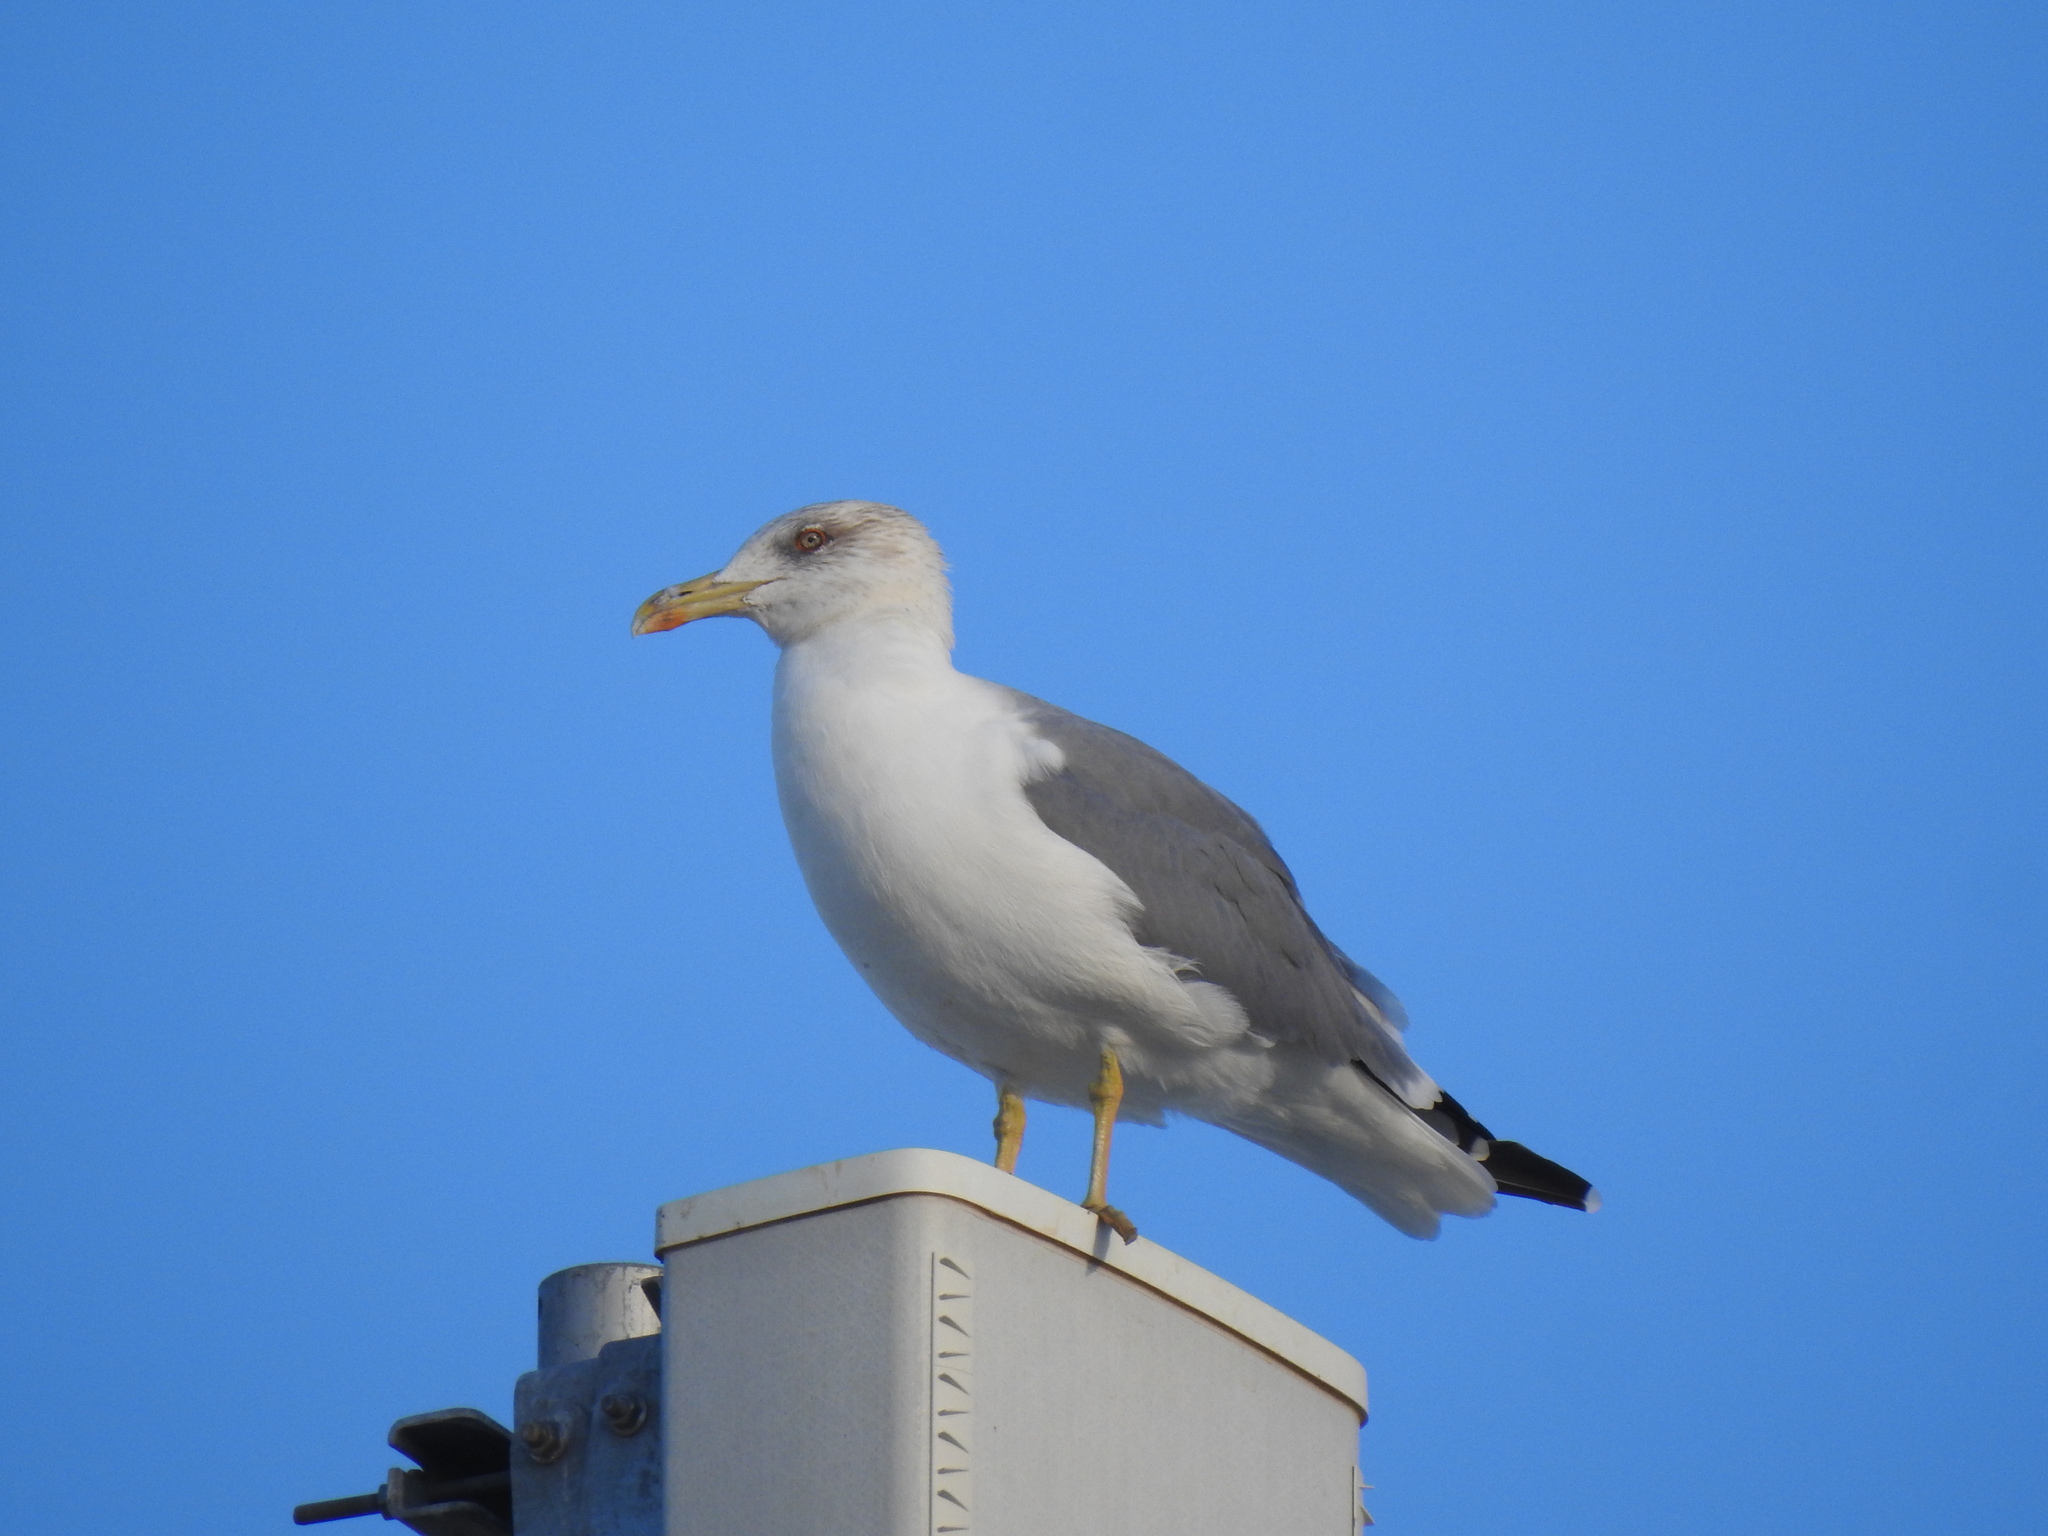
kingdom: Animalia
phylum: Chordata
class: Aves
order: Charadriiformes
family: Laridae
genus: Larus
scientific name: Larus michahellis
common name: Yellow-legged gull
